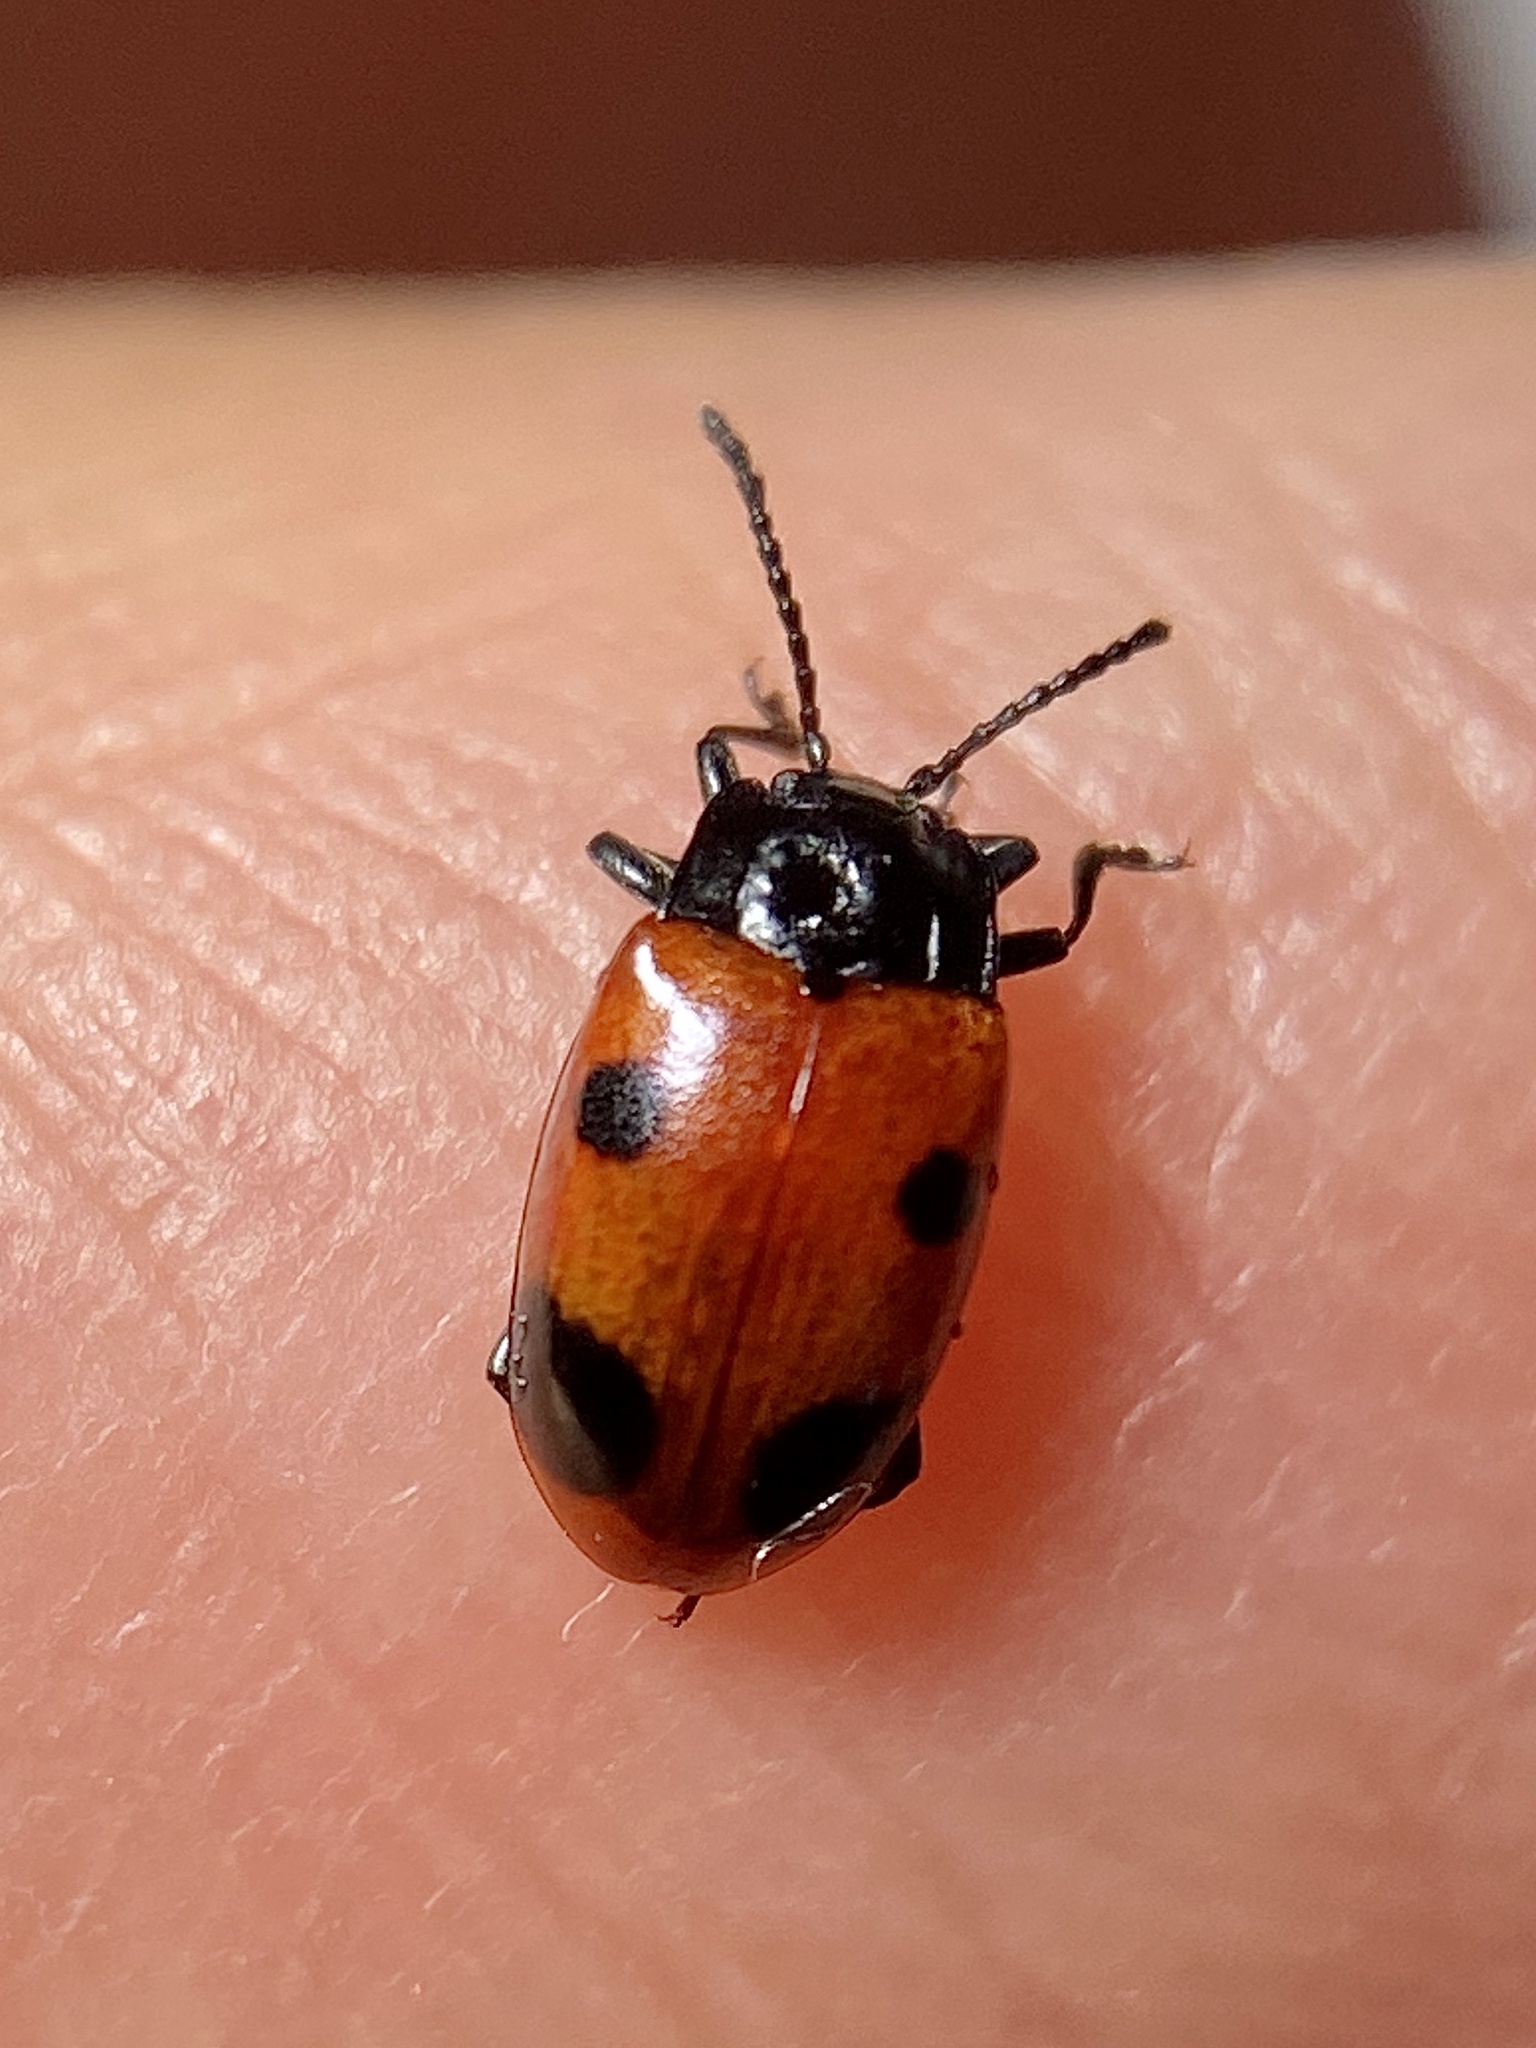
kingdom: Animalia
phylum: Arthropoda
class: Insecta
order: Coleoptera
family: Endomychidae
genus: Endomychus
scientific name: Endomychus biguttatus
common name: Handsome fungus beetle
